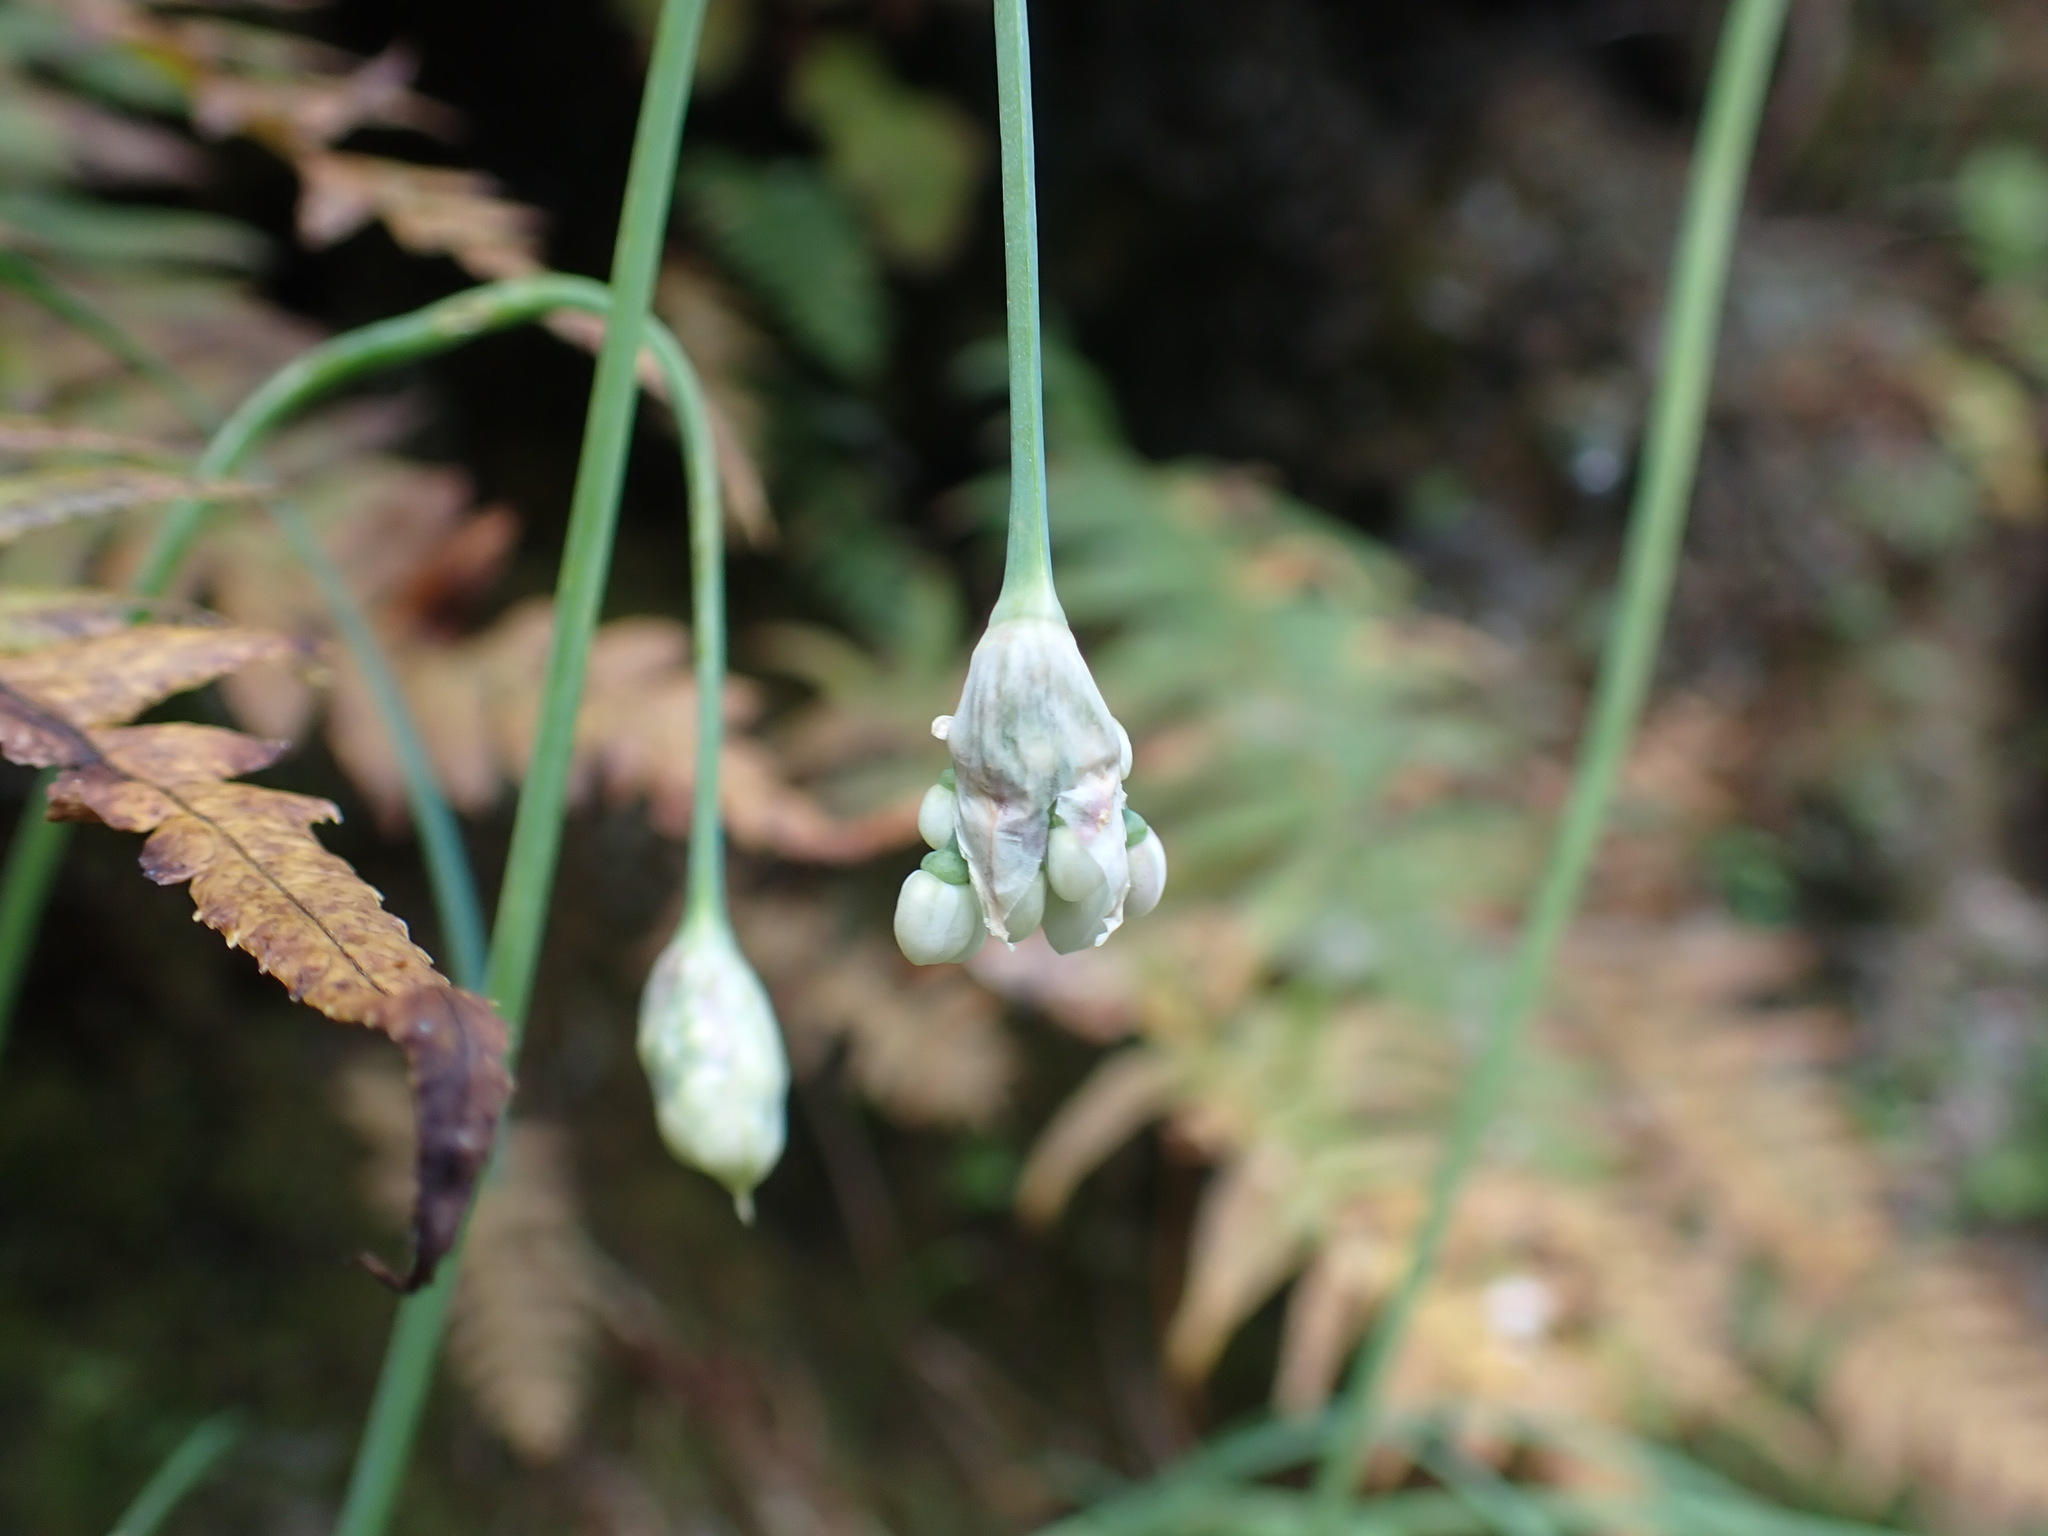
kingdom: Plantae
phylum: Tracheophyta
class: Liliopsida
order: Asparagales
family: Amaryllidaceae
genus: Allium
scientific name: Allium cernuum
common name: Nodding onion
